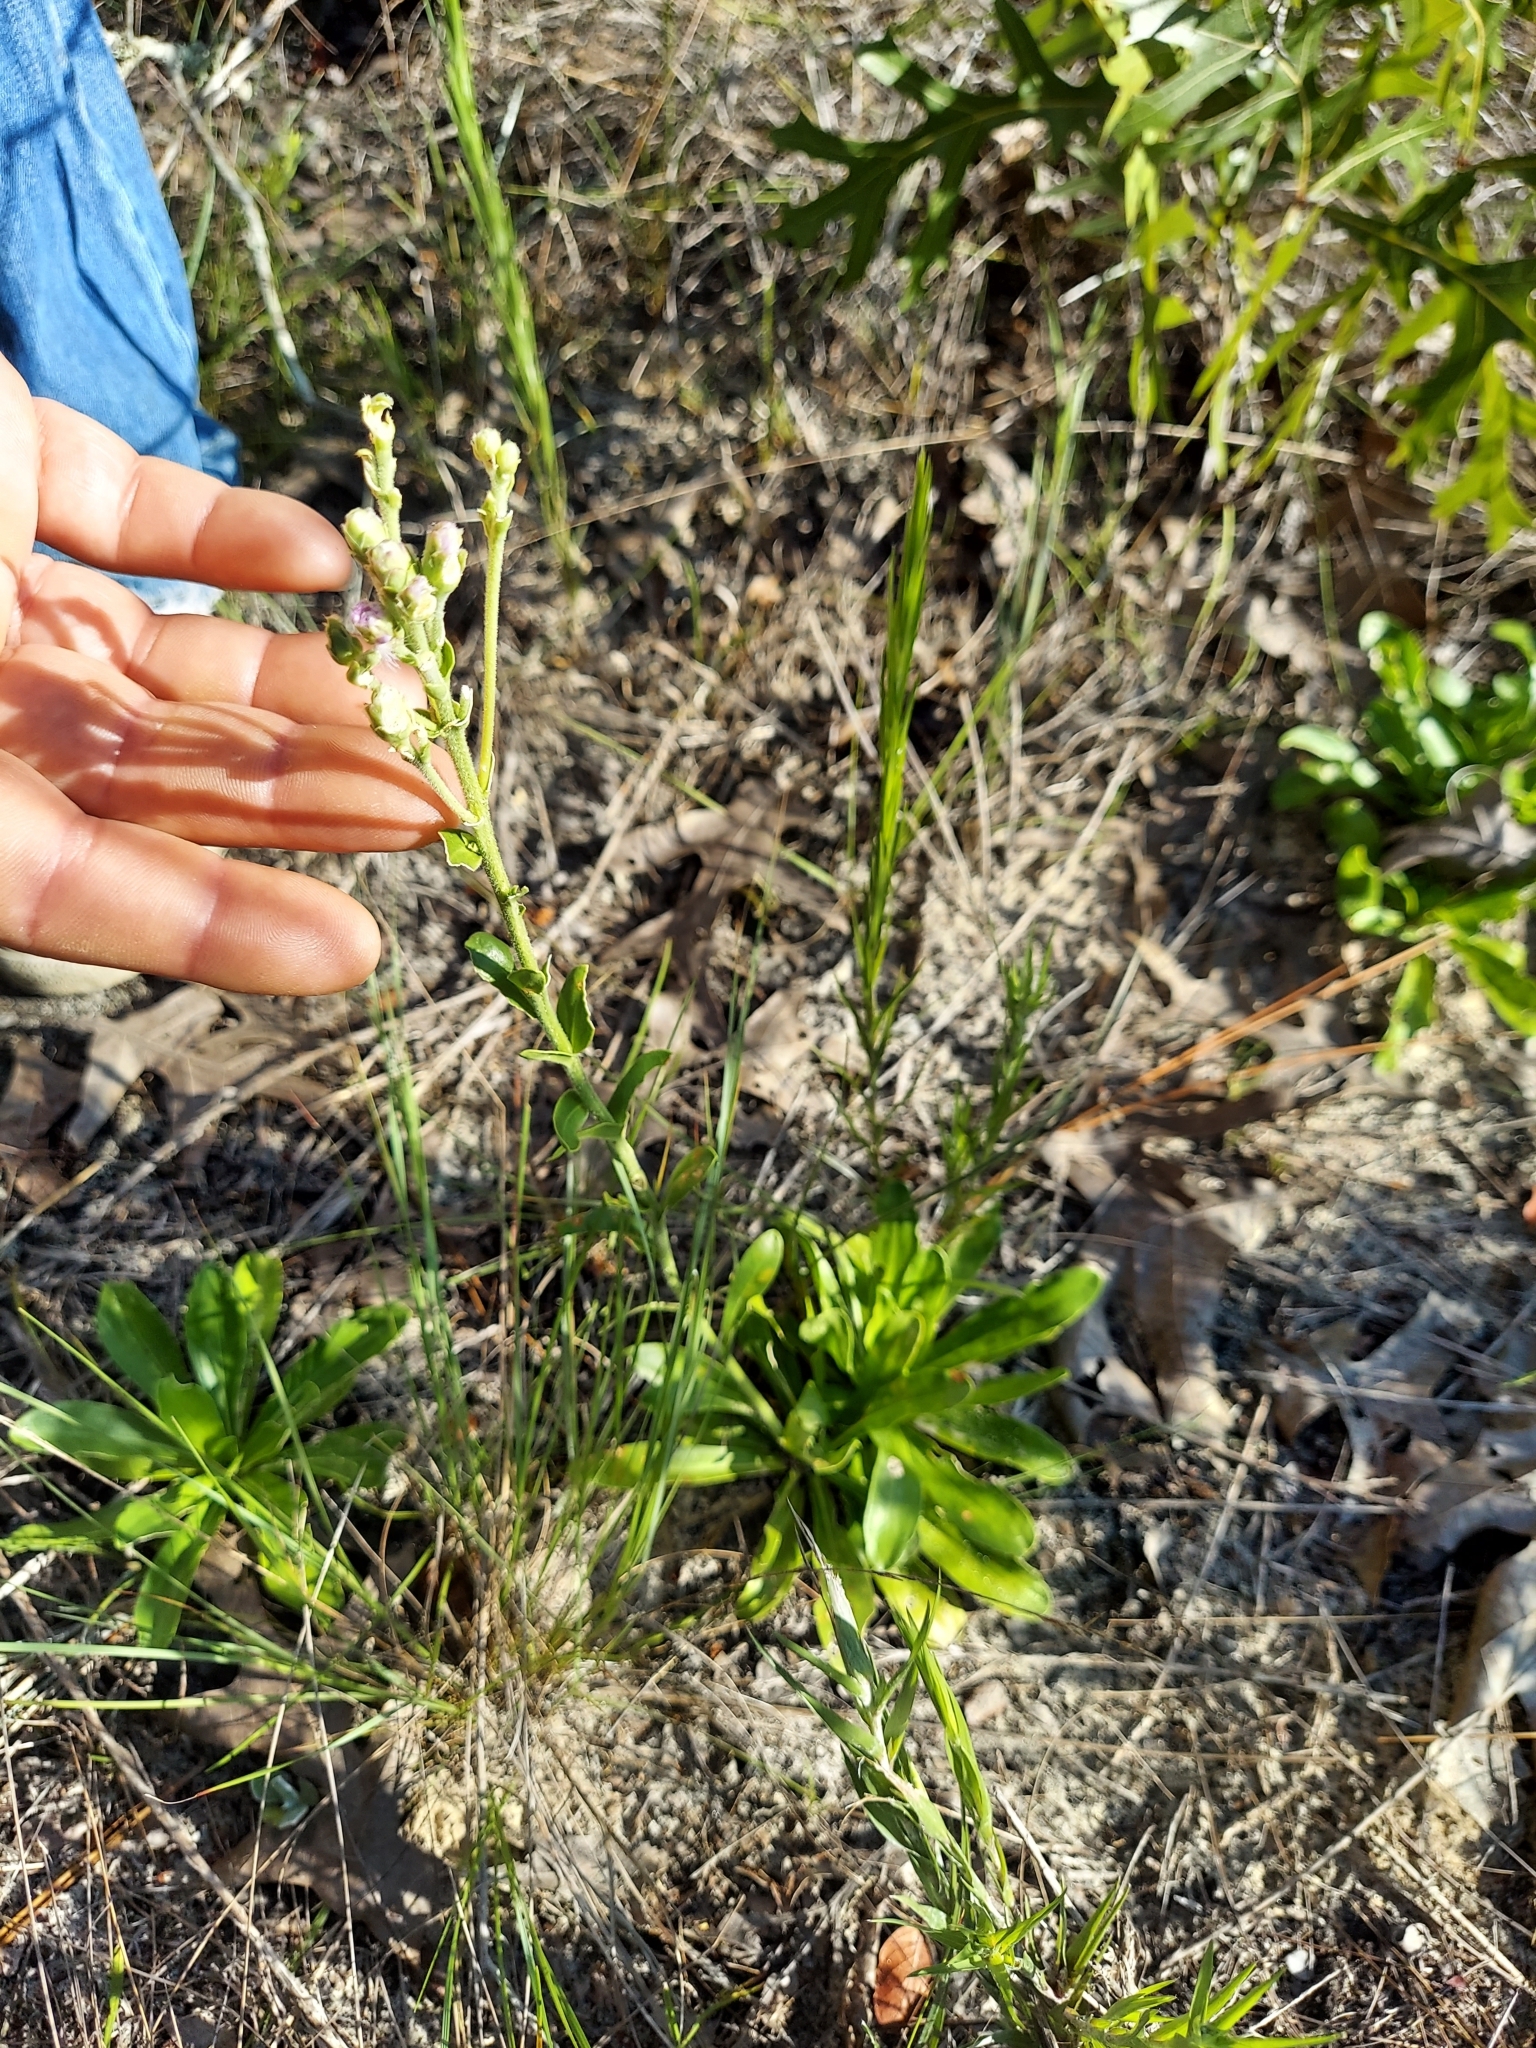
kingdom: Plantae
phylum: Tracheophyta
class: Magnoliopsida
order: Asterales
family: Asteraceae
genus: Carphephorus
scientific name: Carphephorus corymbosus
